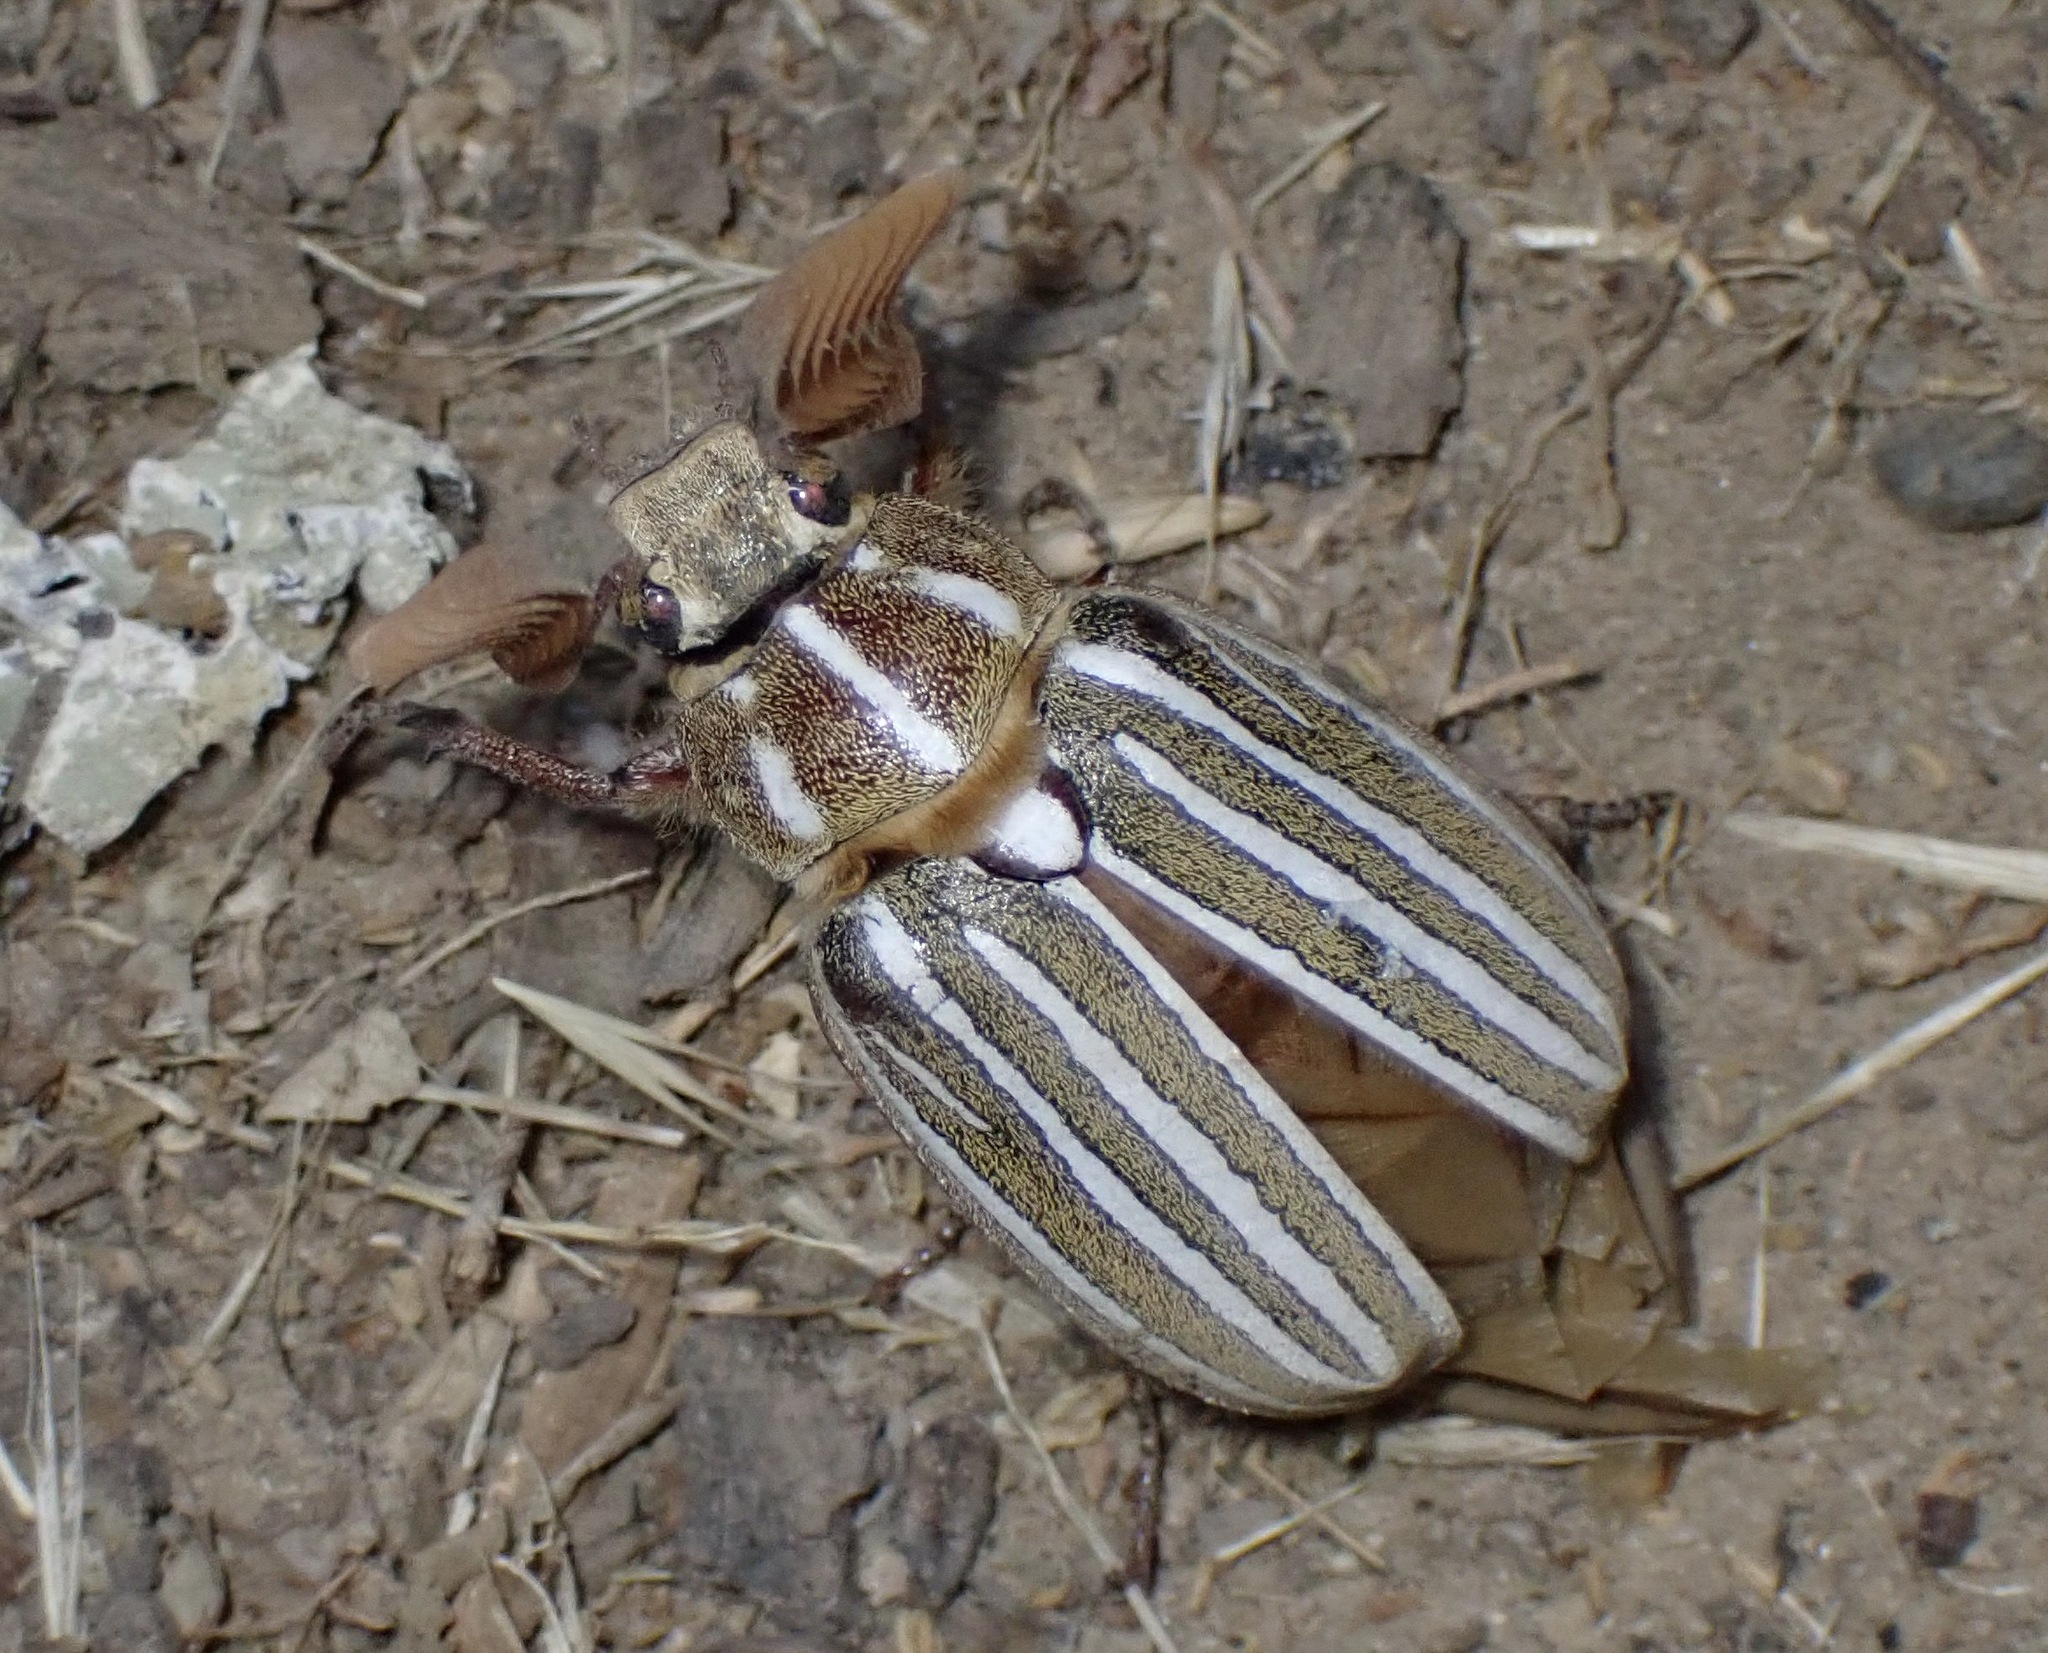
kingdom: Animalia
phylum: Arthropoda
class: Insecta
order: Coleoptera
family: Scarabaeidae
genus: Polyphylla
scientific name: Polyphylla decemlineata
